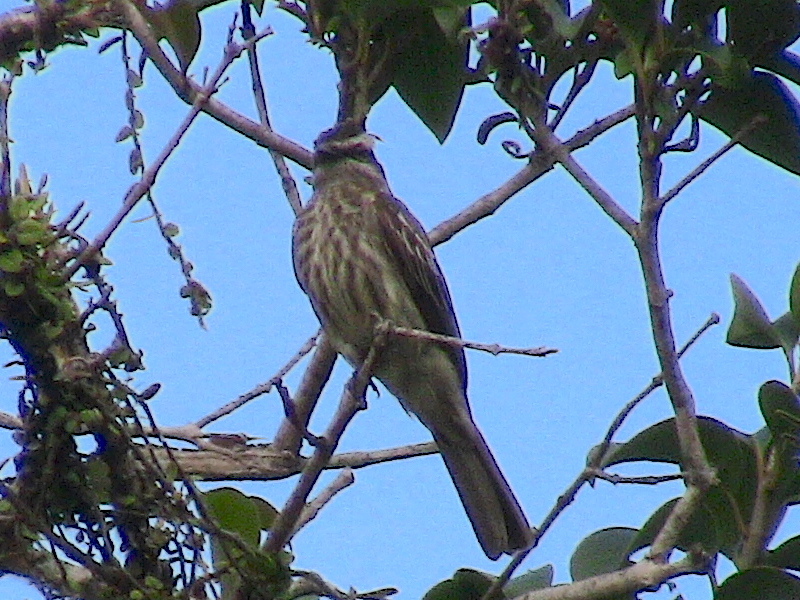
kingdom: Animalia
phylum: Chordata
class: Aves
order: Passeriformes
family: Tyrannidae
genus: Empidonomus
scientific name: Empidonomus varius
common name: Variegated flycatcher
